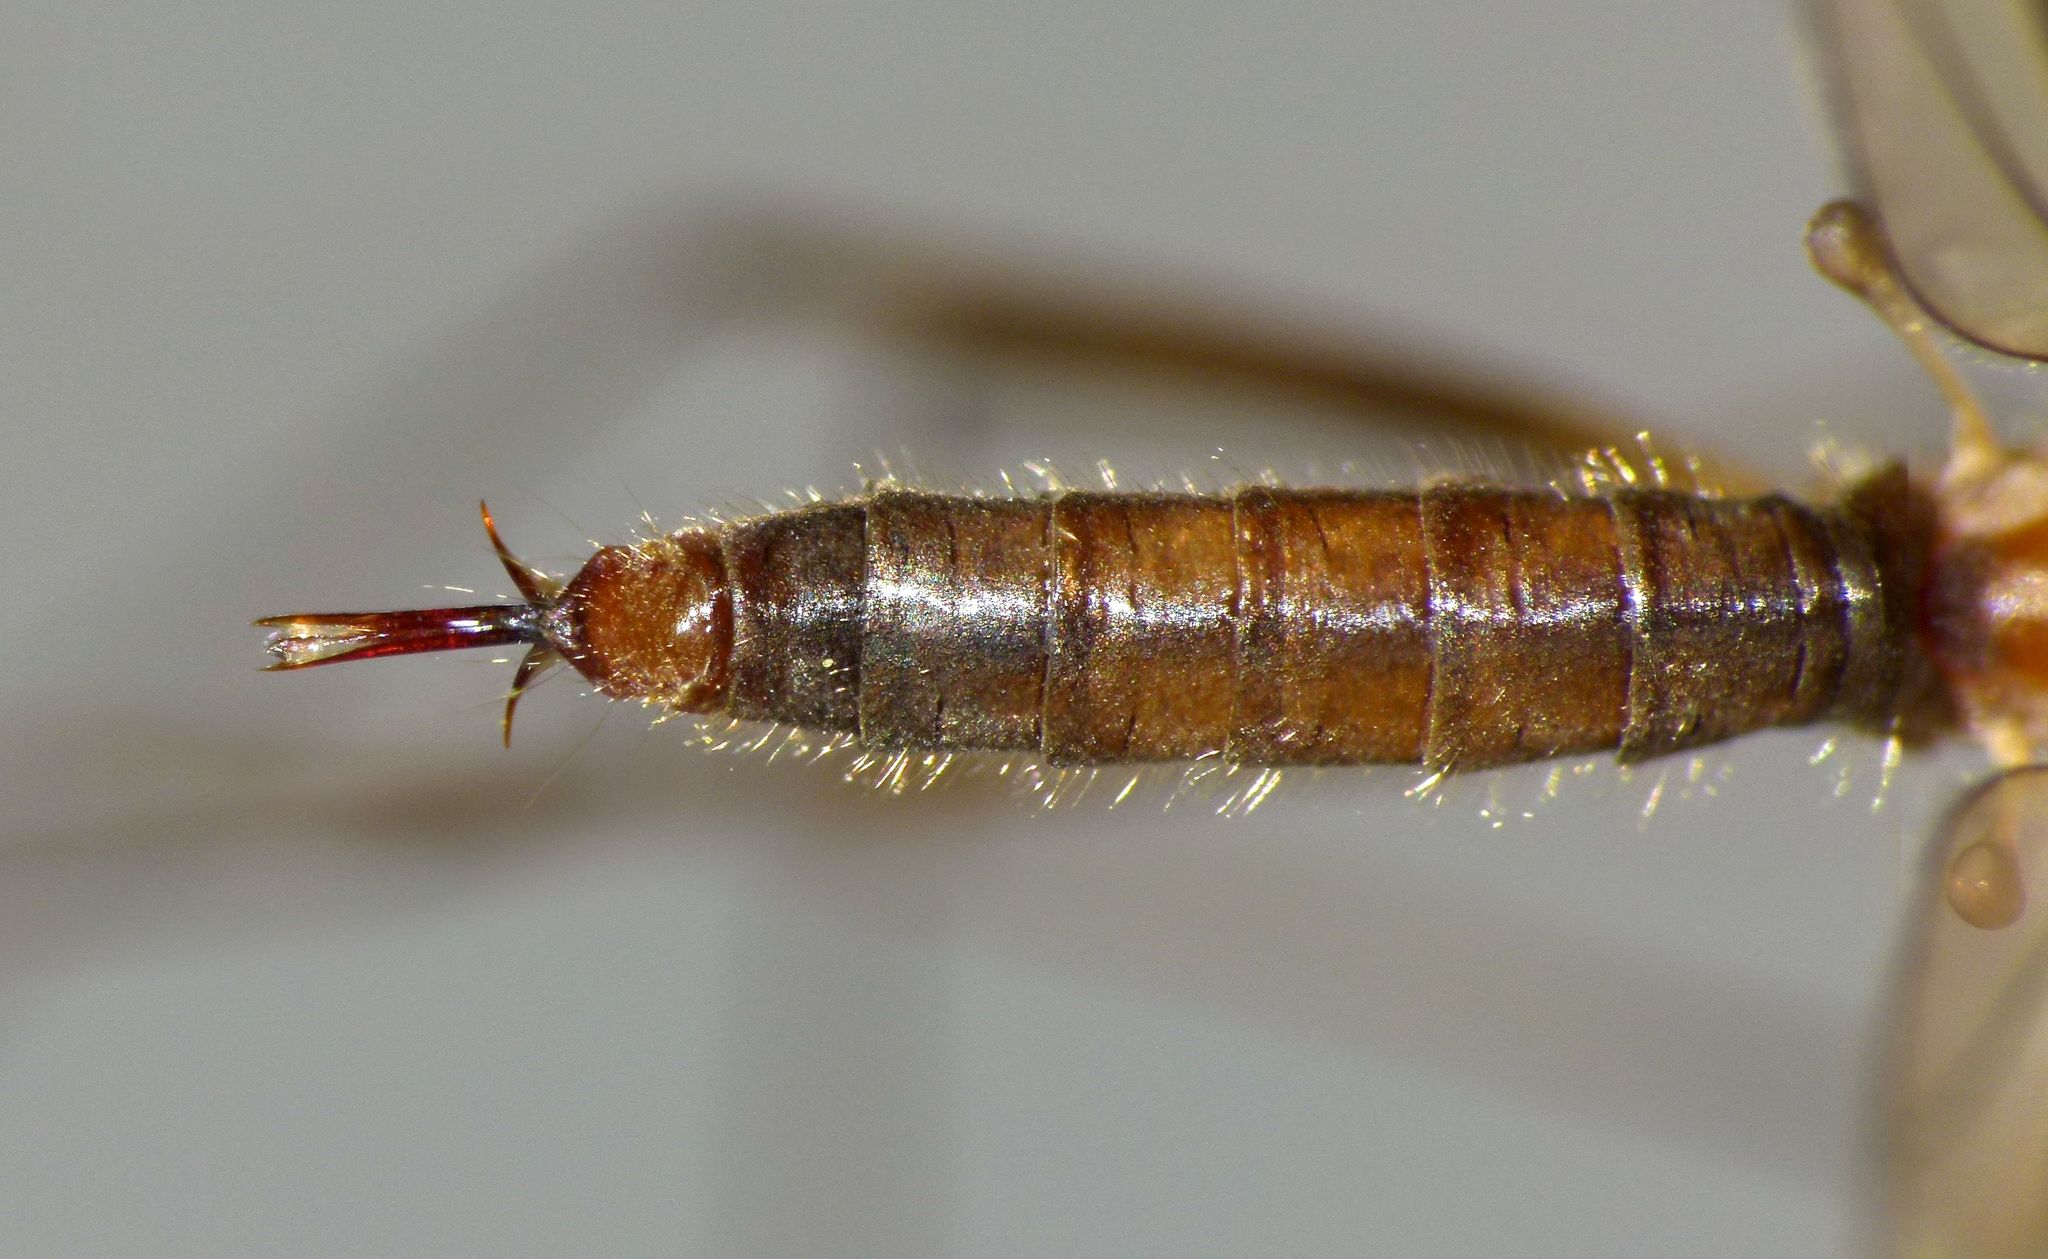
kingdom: Animalia
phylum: Arthropoda
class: Insecta
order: Diptera
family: Limoniidae
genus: Dicranomyia
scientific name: Dicranomyia cubitalis
